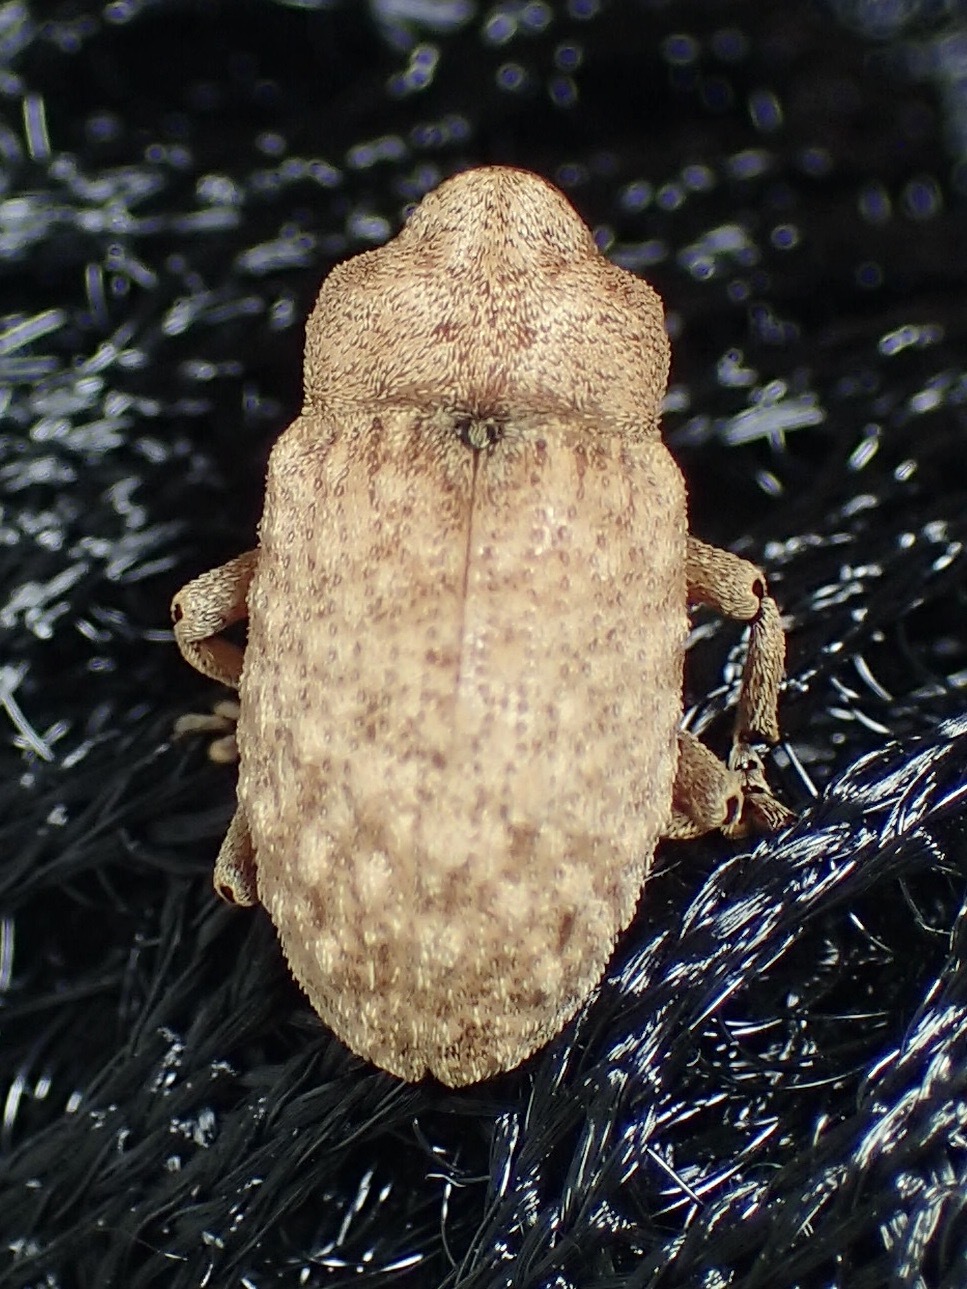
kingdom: Animalia
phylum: Arthropoda
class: Insecta
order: Coleoptera
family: Curculionidae
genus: Storeus
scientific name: Storeus maximus
